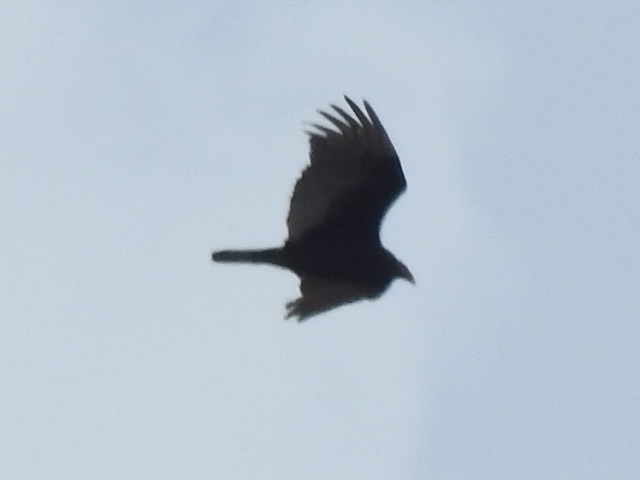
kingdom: Animalia
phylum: Chordata
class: Aves
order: Accipitriformes
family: Cathartidae
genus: Cathartes
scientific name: Cathartes aura
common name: Turkey vulture
